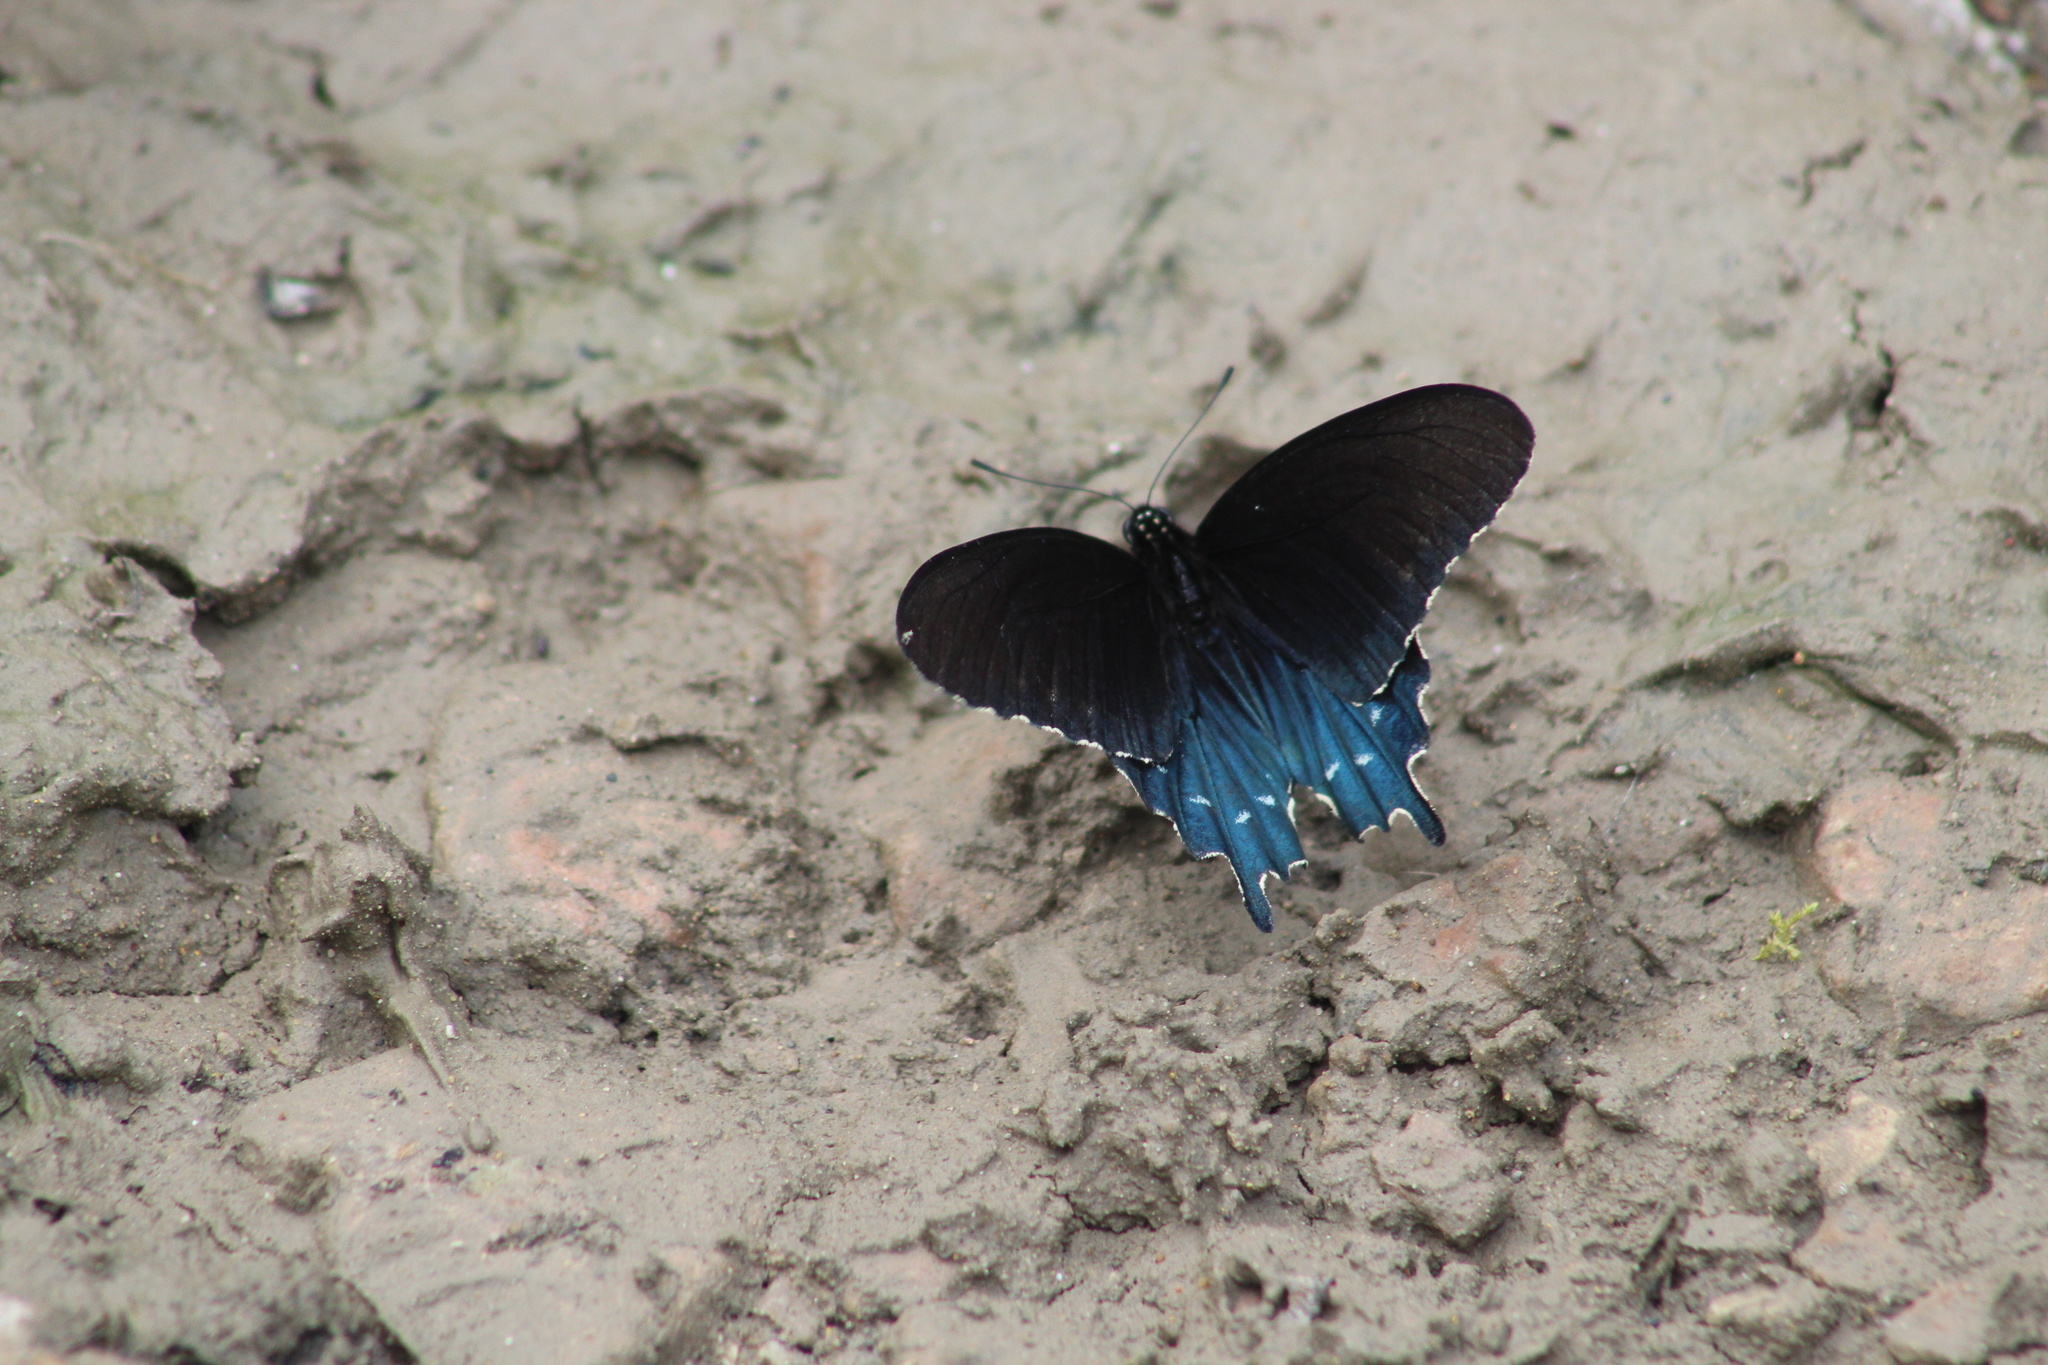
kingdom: Animalia
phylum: Arthropoda
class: Insecta
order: Lepidoptera
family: Papilionidae
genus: Battus
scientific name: Battus philenor
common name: Pipevine swallowtail
